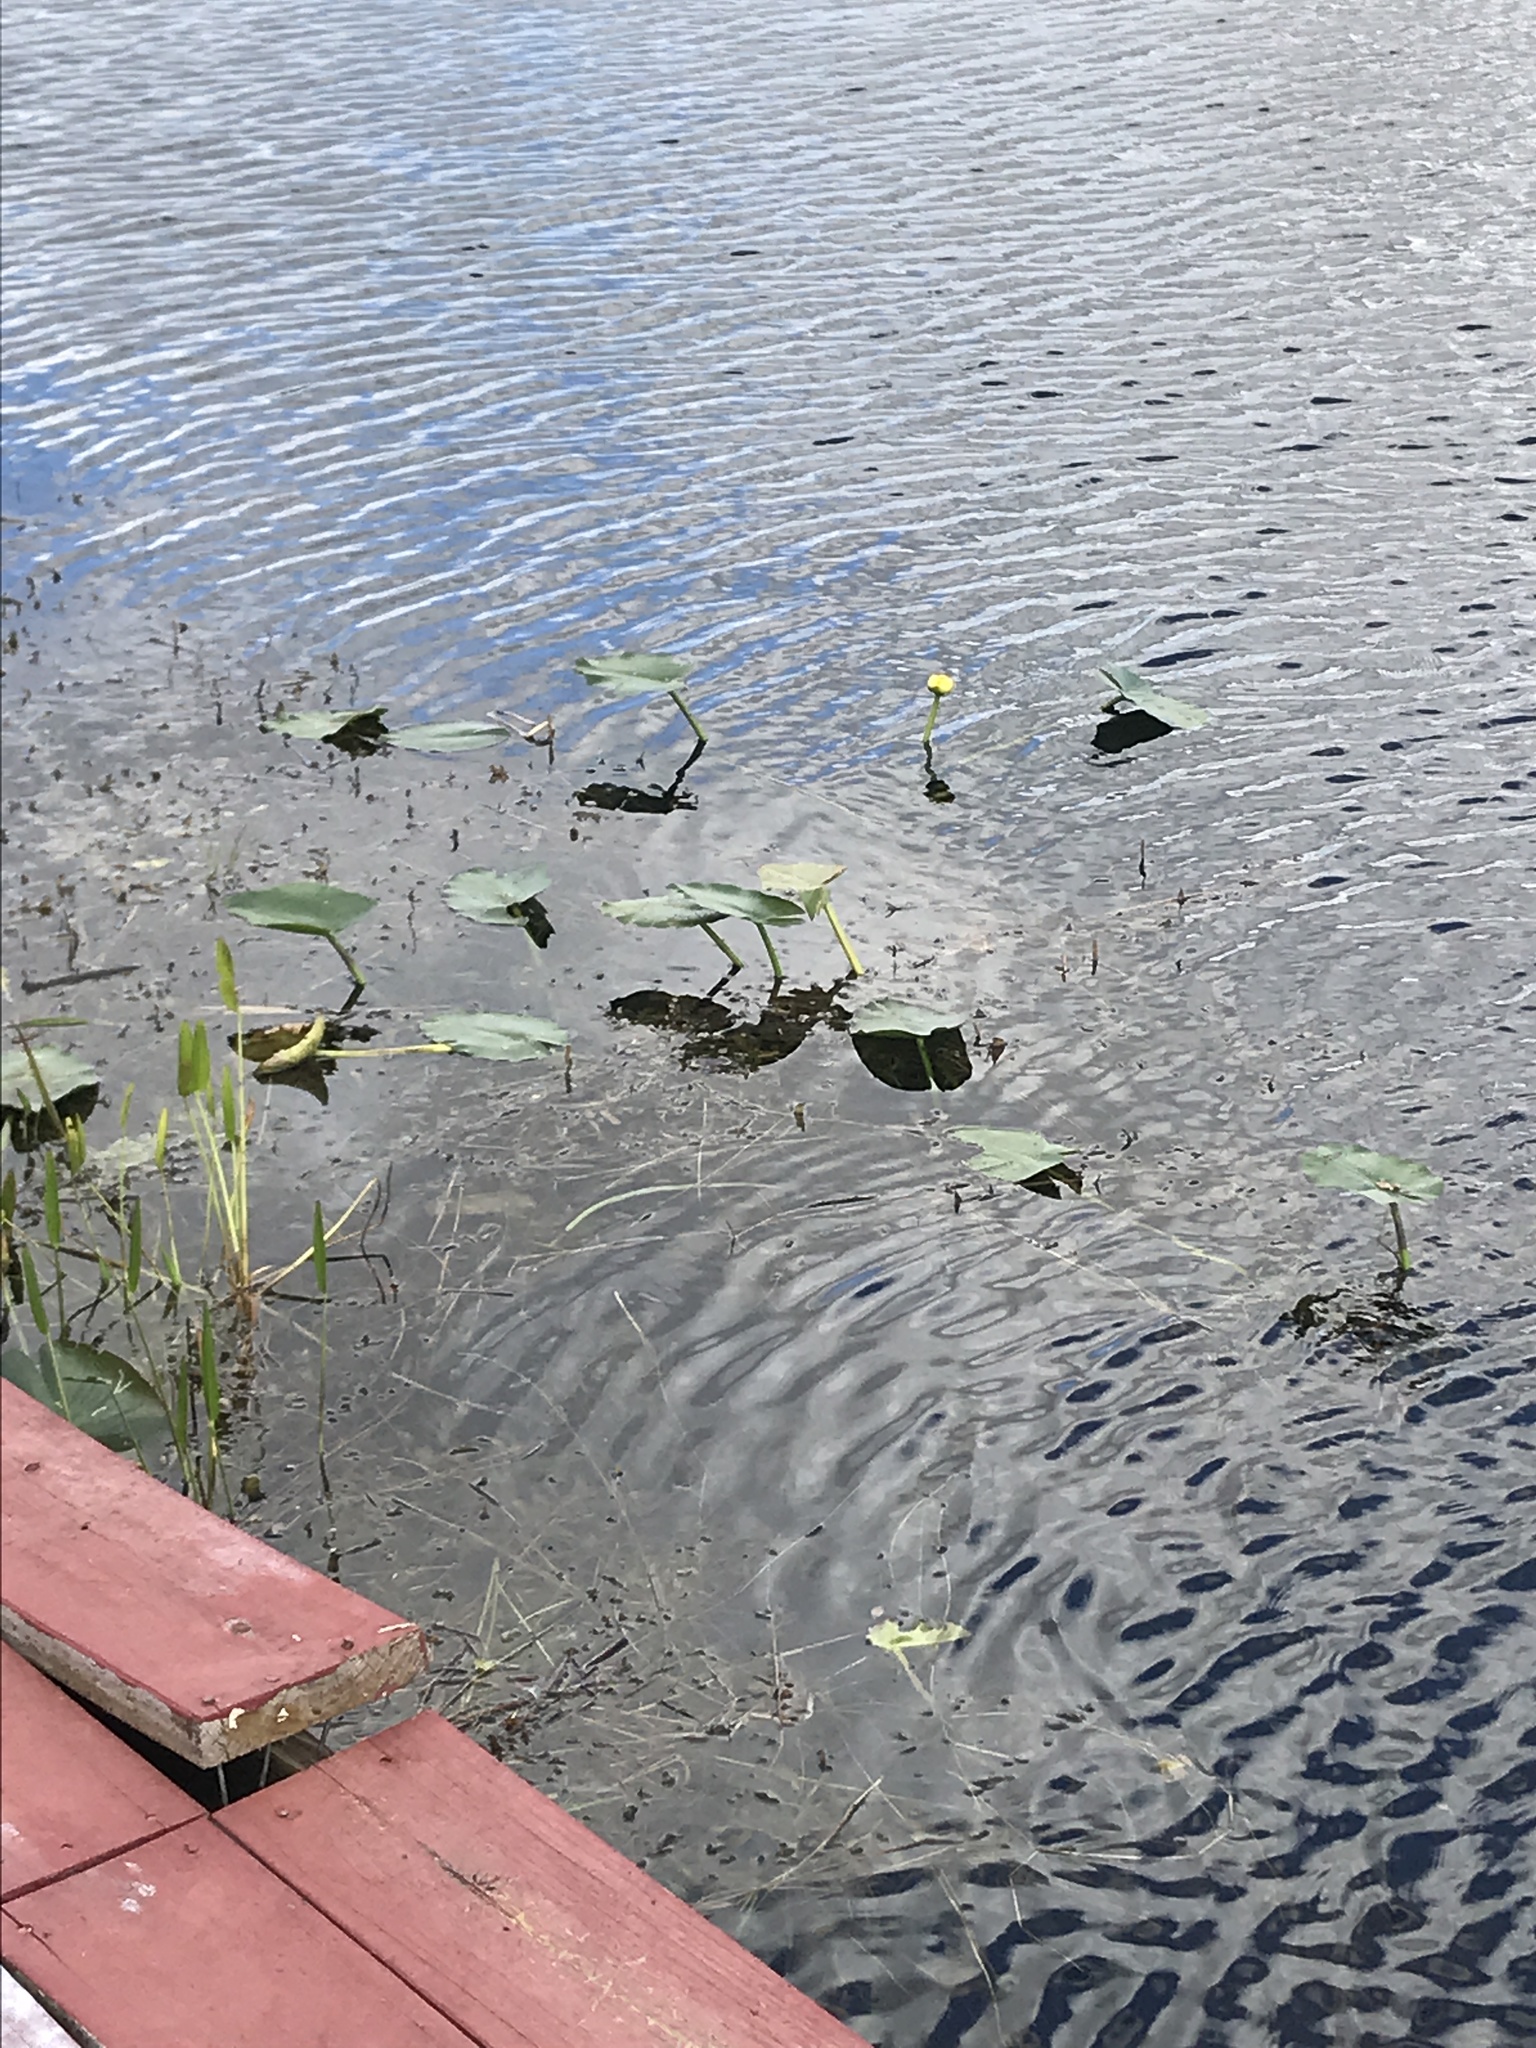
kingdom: Plantae
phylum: Tracheophyta
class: Magnoliopsida
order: Nymphaeales
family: Nymphaeaceae
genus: Nuphar
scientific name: Nuphar advena
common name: Spatter-dock
